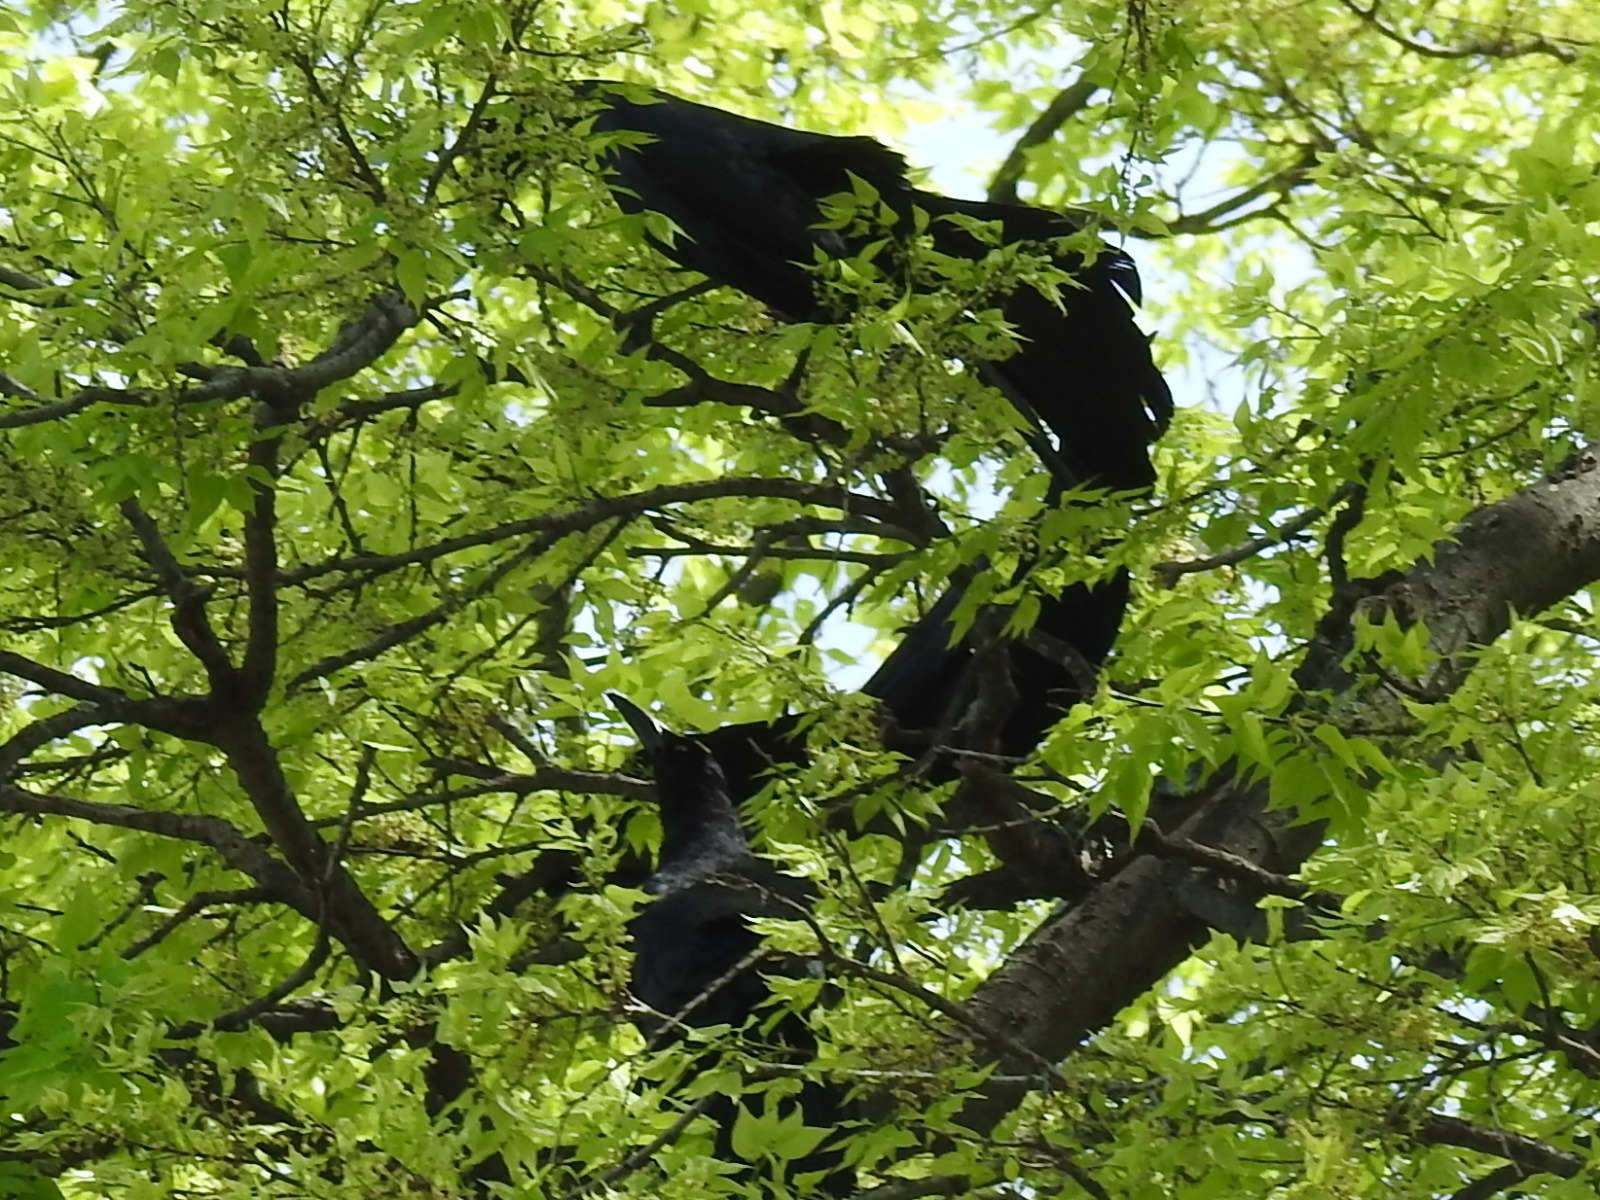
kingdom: Animalia
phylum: Chordata
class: Aves
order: Passeriformes
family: Icteridae
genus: Quiscalus
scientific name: Quiscalus mexicanus
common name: Great-tailed grackle
